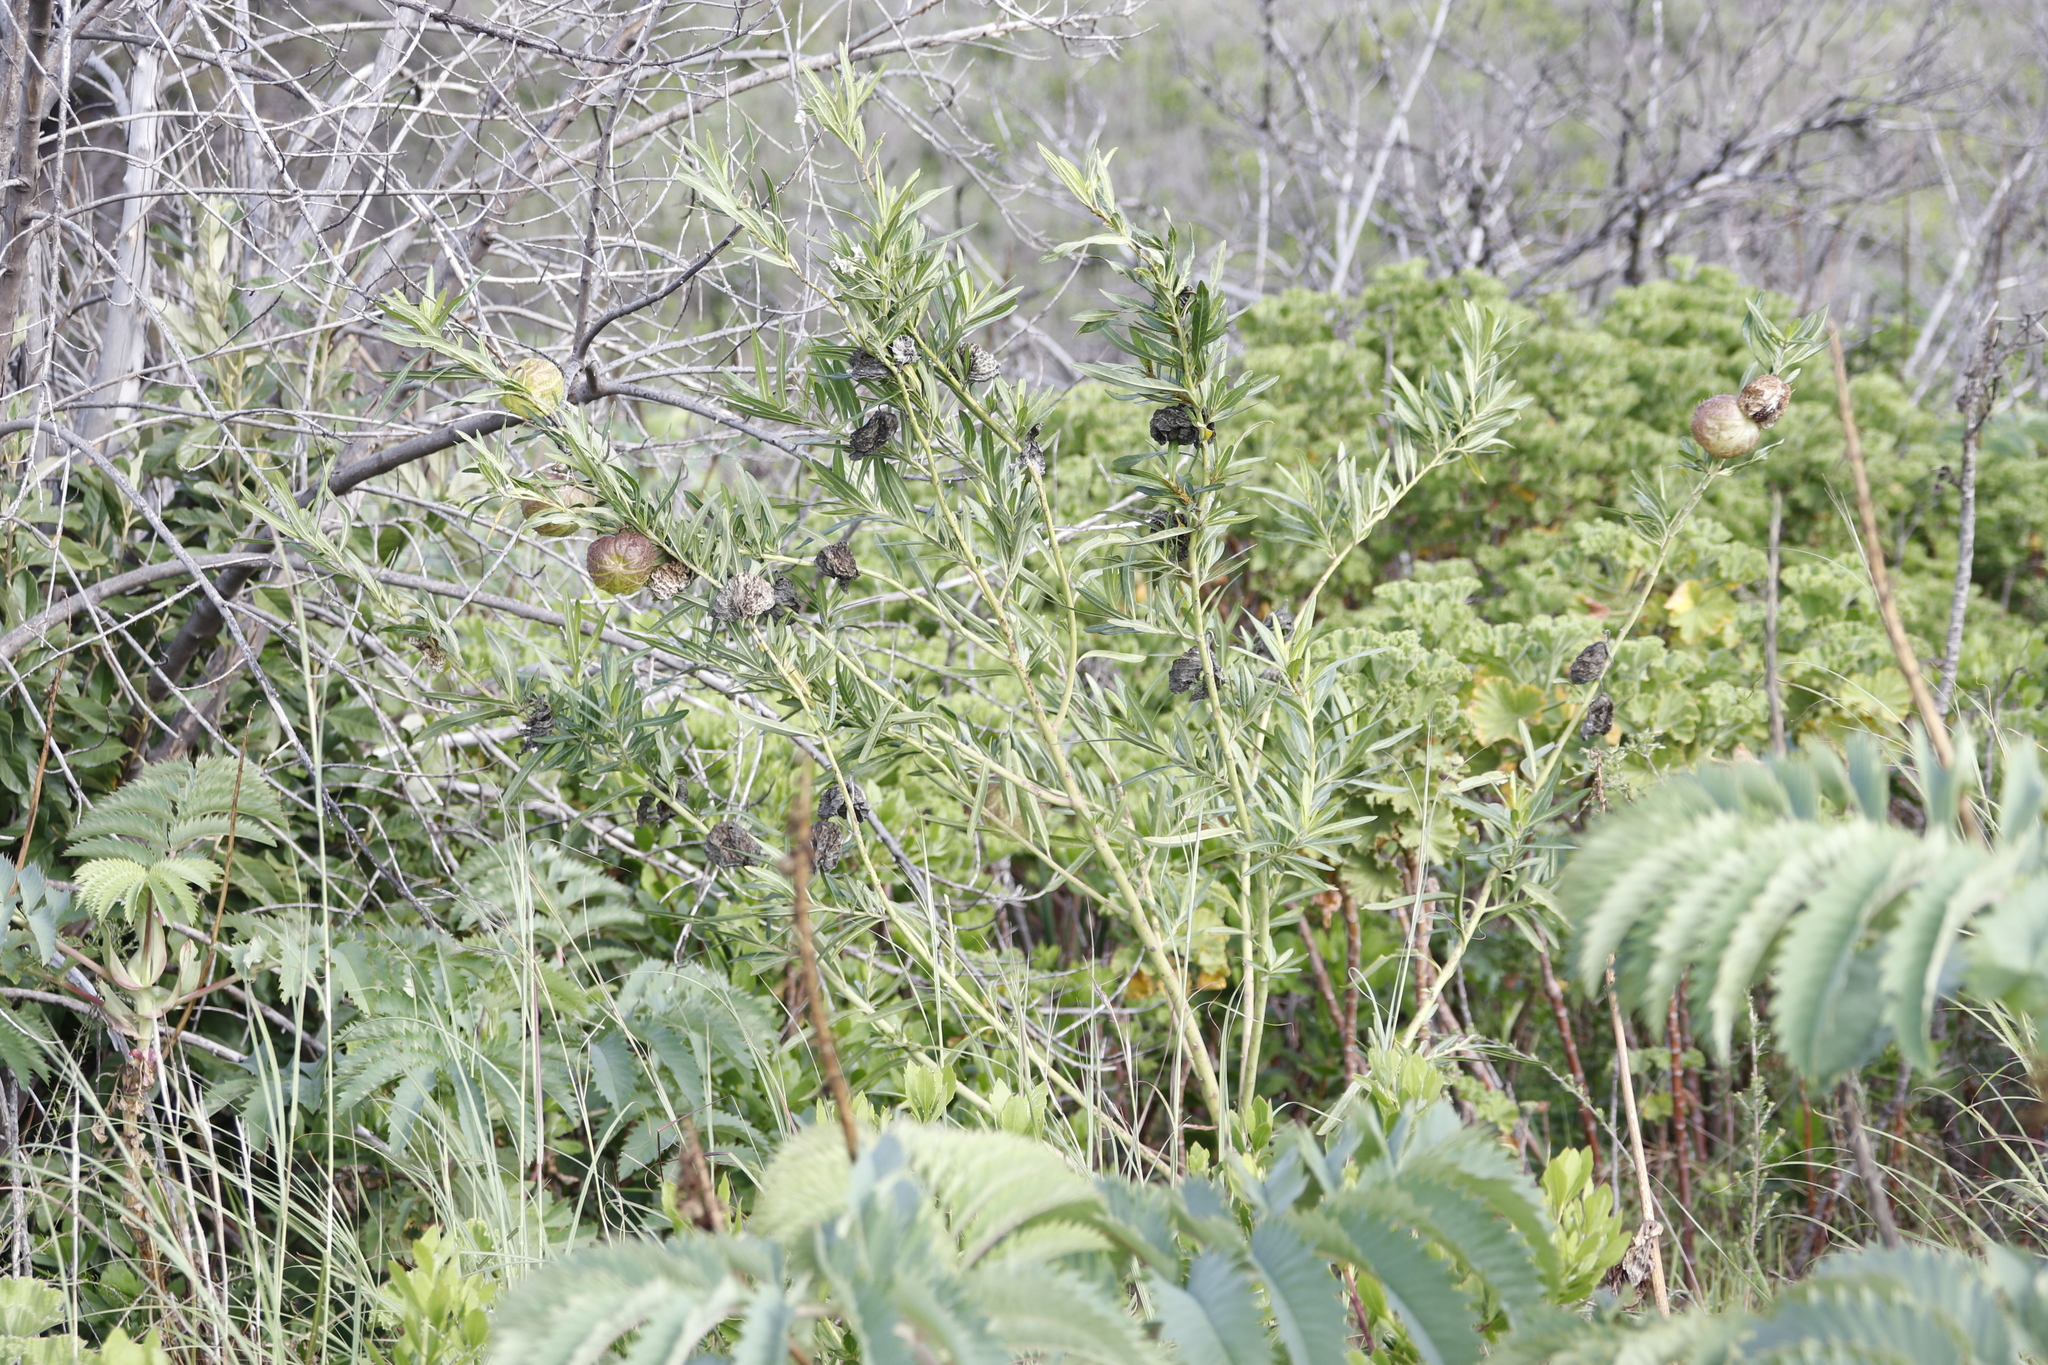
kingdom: Plantae
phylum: Tracheophyta
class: Magnoliopsida
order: Gentianales
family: Apocynaceae
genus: Gomphocarpus
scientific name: Gomphocarpus physocarpus
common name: Balloon cotton bush
